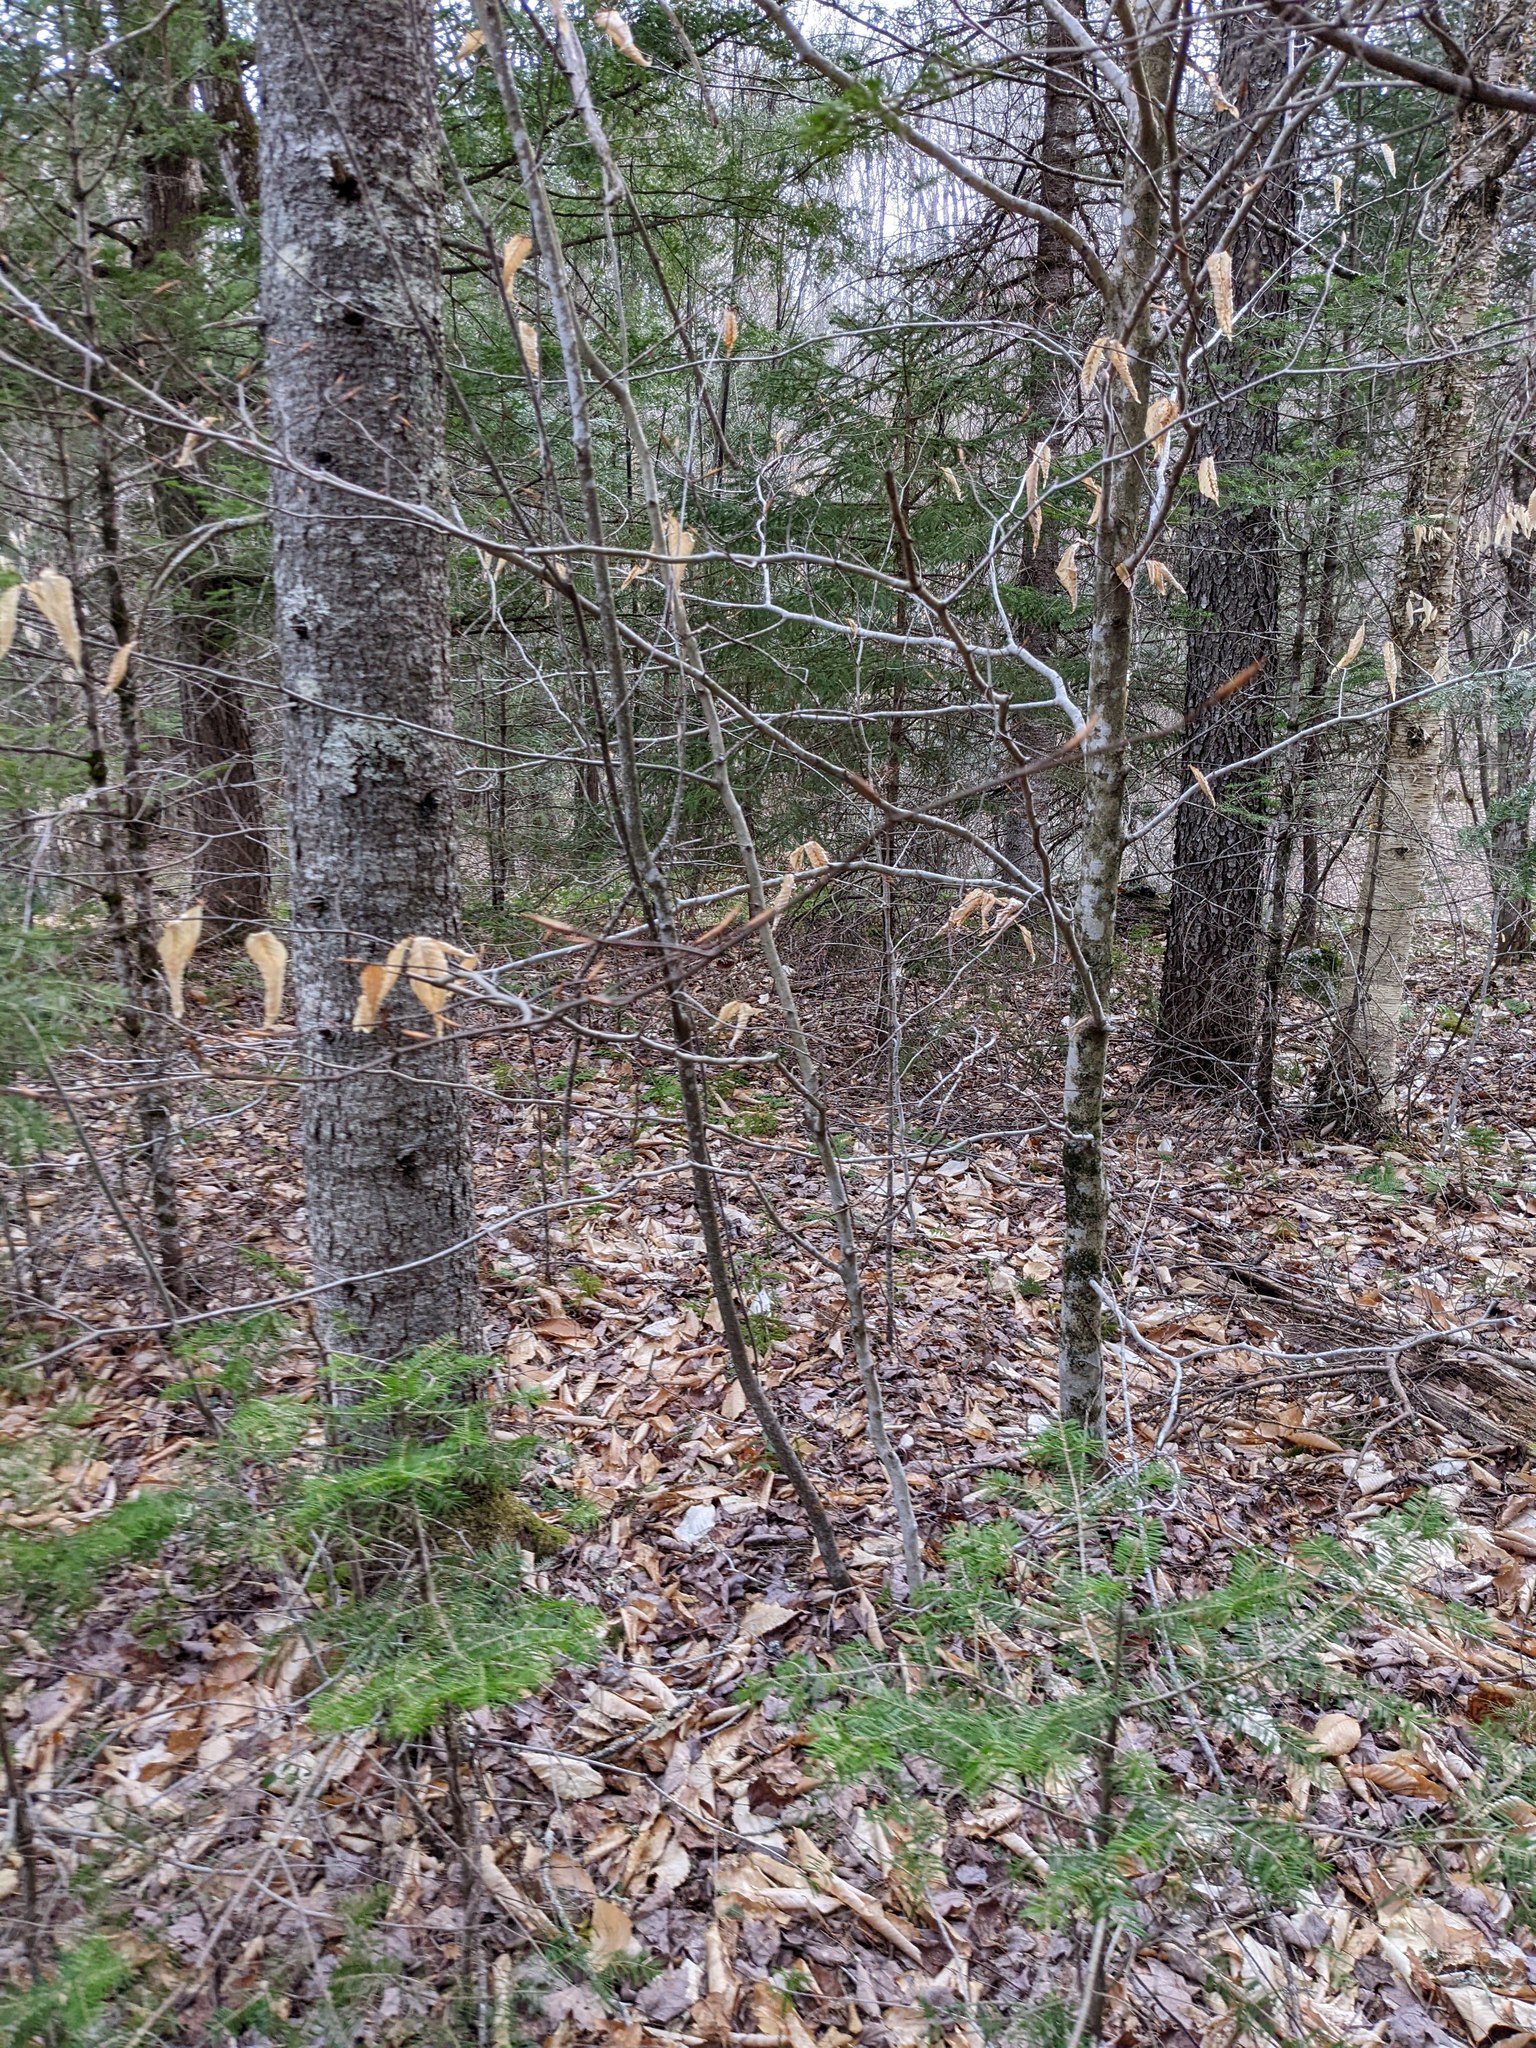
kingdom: Plantae
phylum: Tracheophyta
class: Magnoliopsida
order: Fagales
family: Fagaceae
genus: Fagus
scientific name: Fagus grandifolia
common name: American beech
